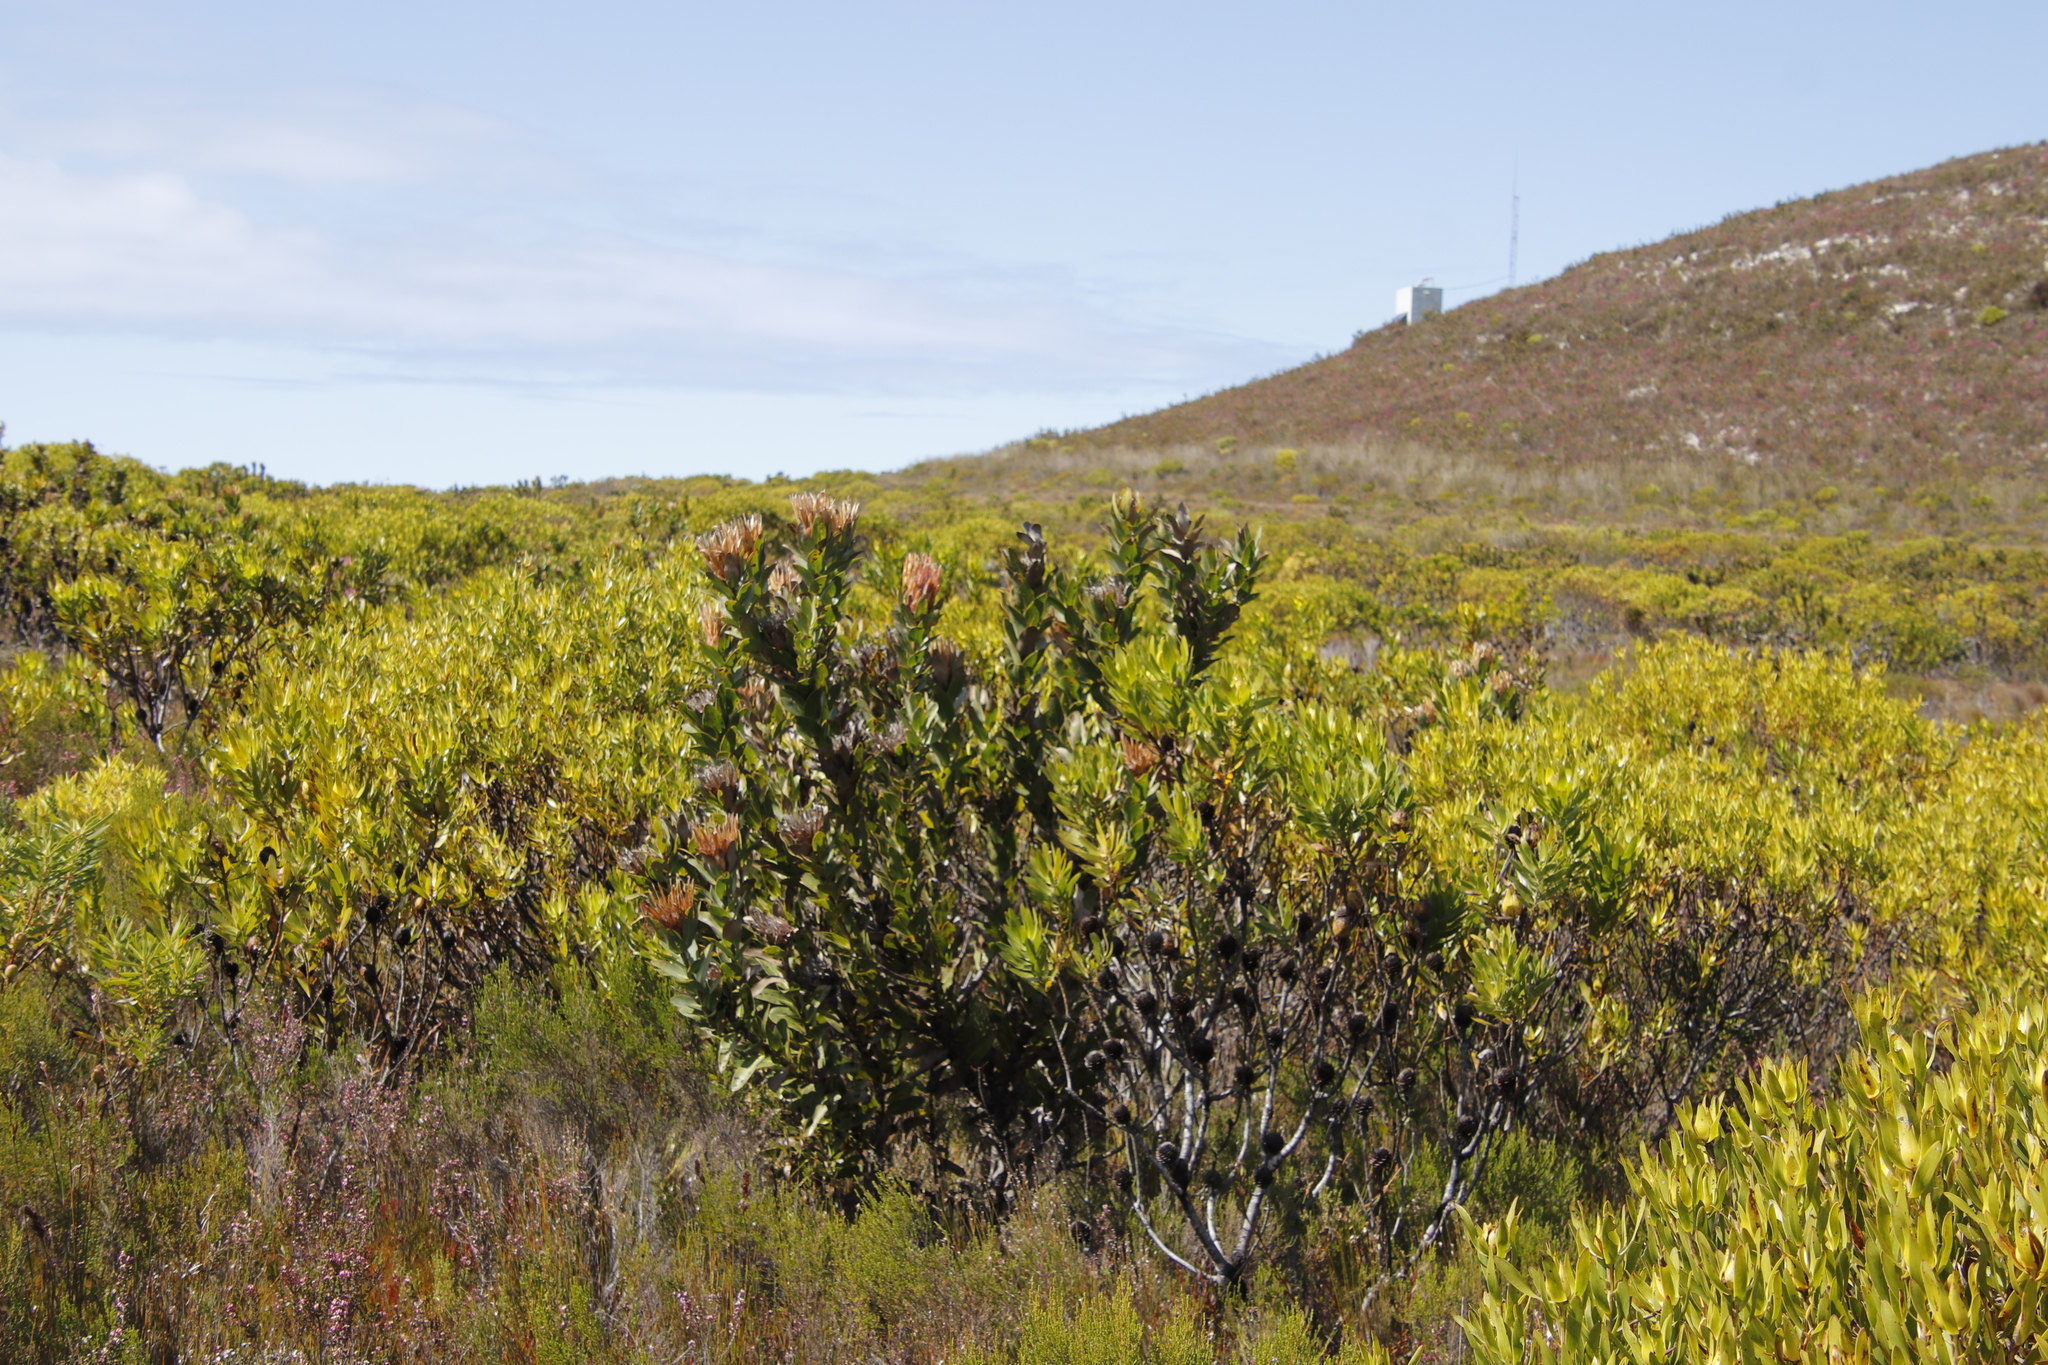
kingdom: Plantae
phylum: Tracheophyta
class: Magnoliopsida
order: Proteales
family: Proteaceae
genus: Protea
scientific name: Protea compacta
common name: Bot river protea
